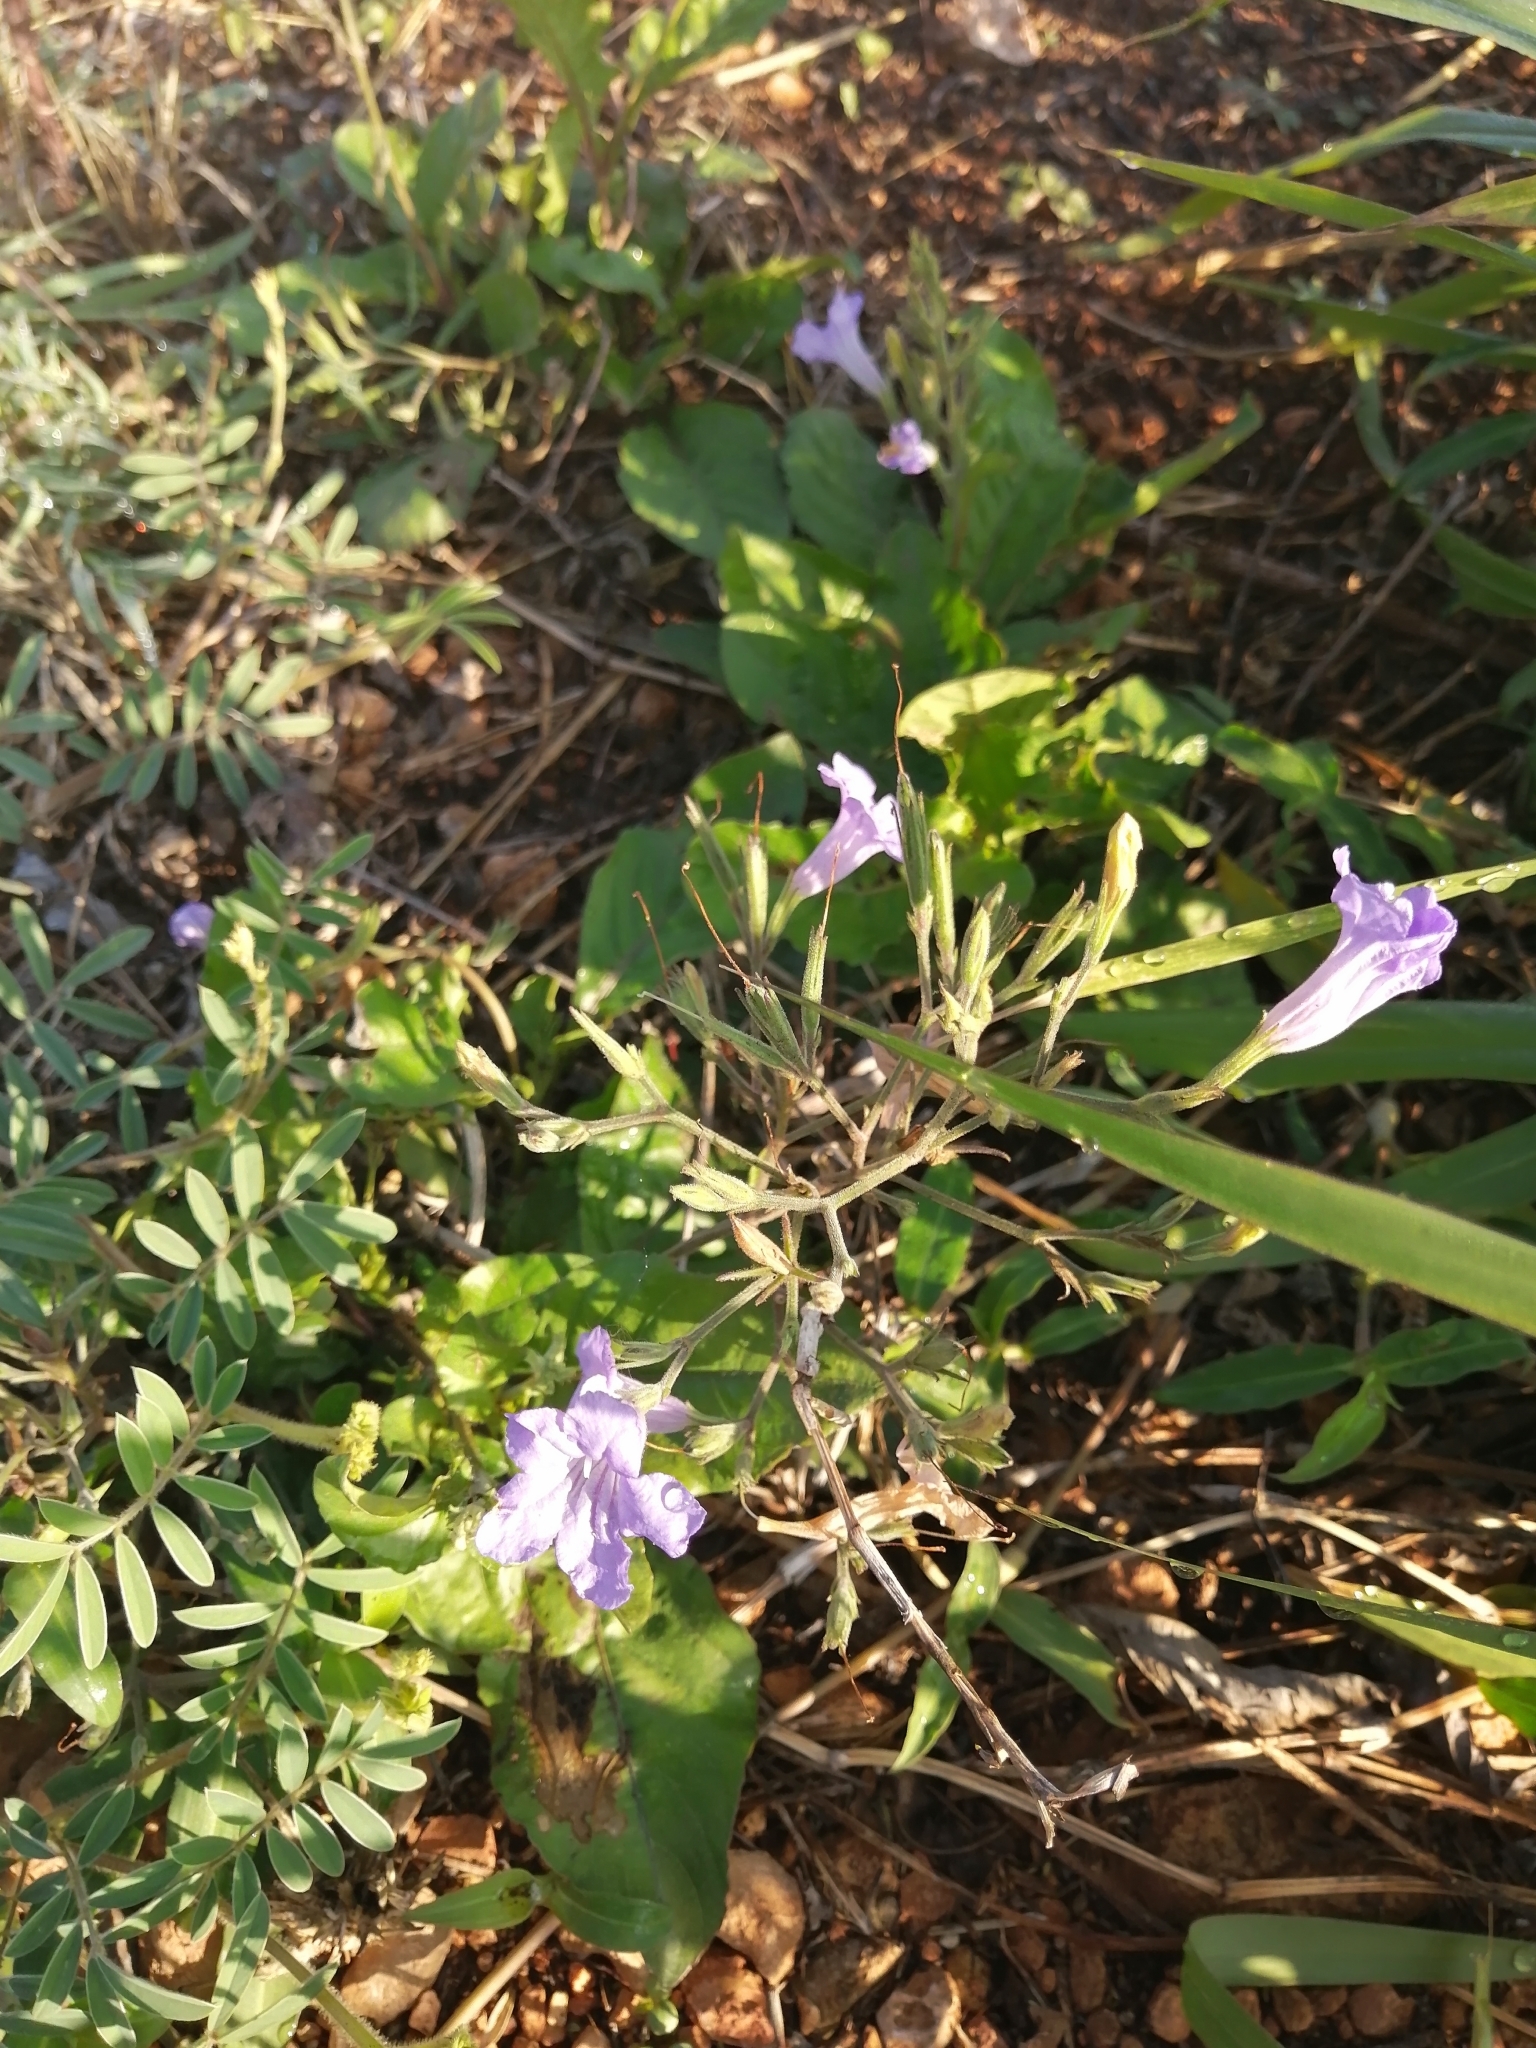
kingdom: Plantae
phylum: Tracheophyta
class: Magnoliopsida
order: Lamiales
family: Acanthaceae
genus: Ruellia
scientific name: Ruellia ciliatiflora
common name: Hairyflower wild petunia
